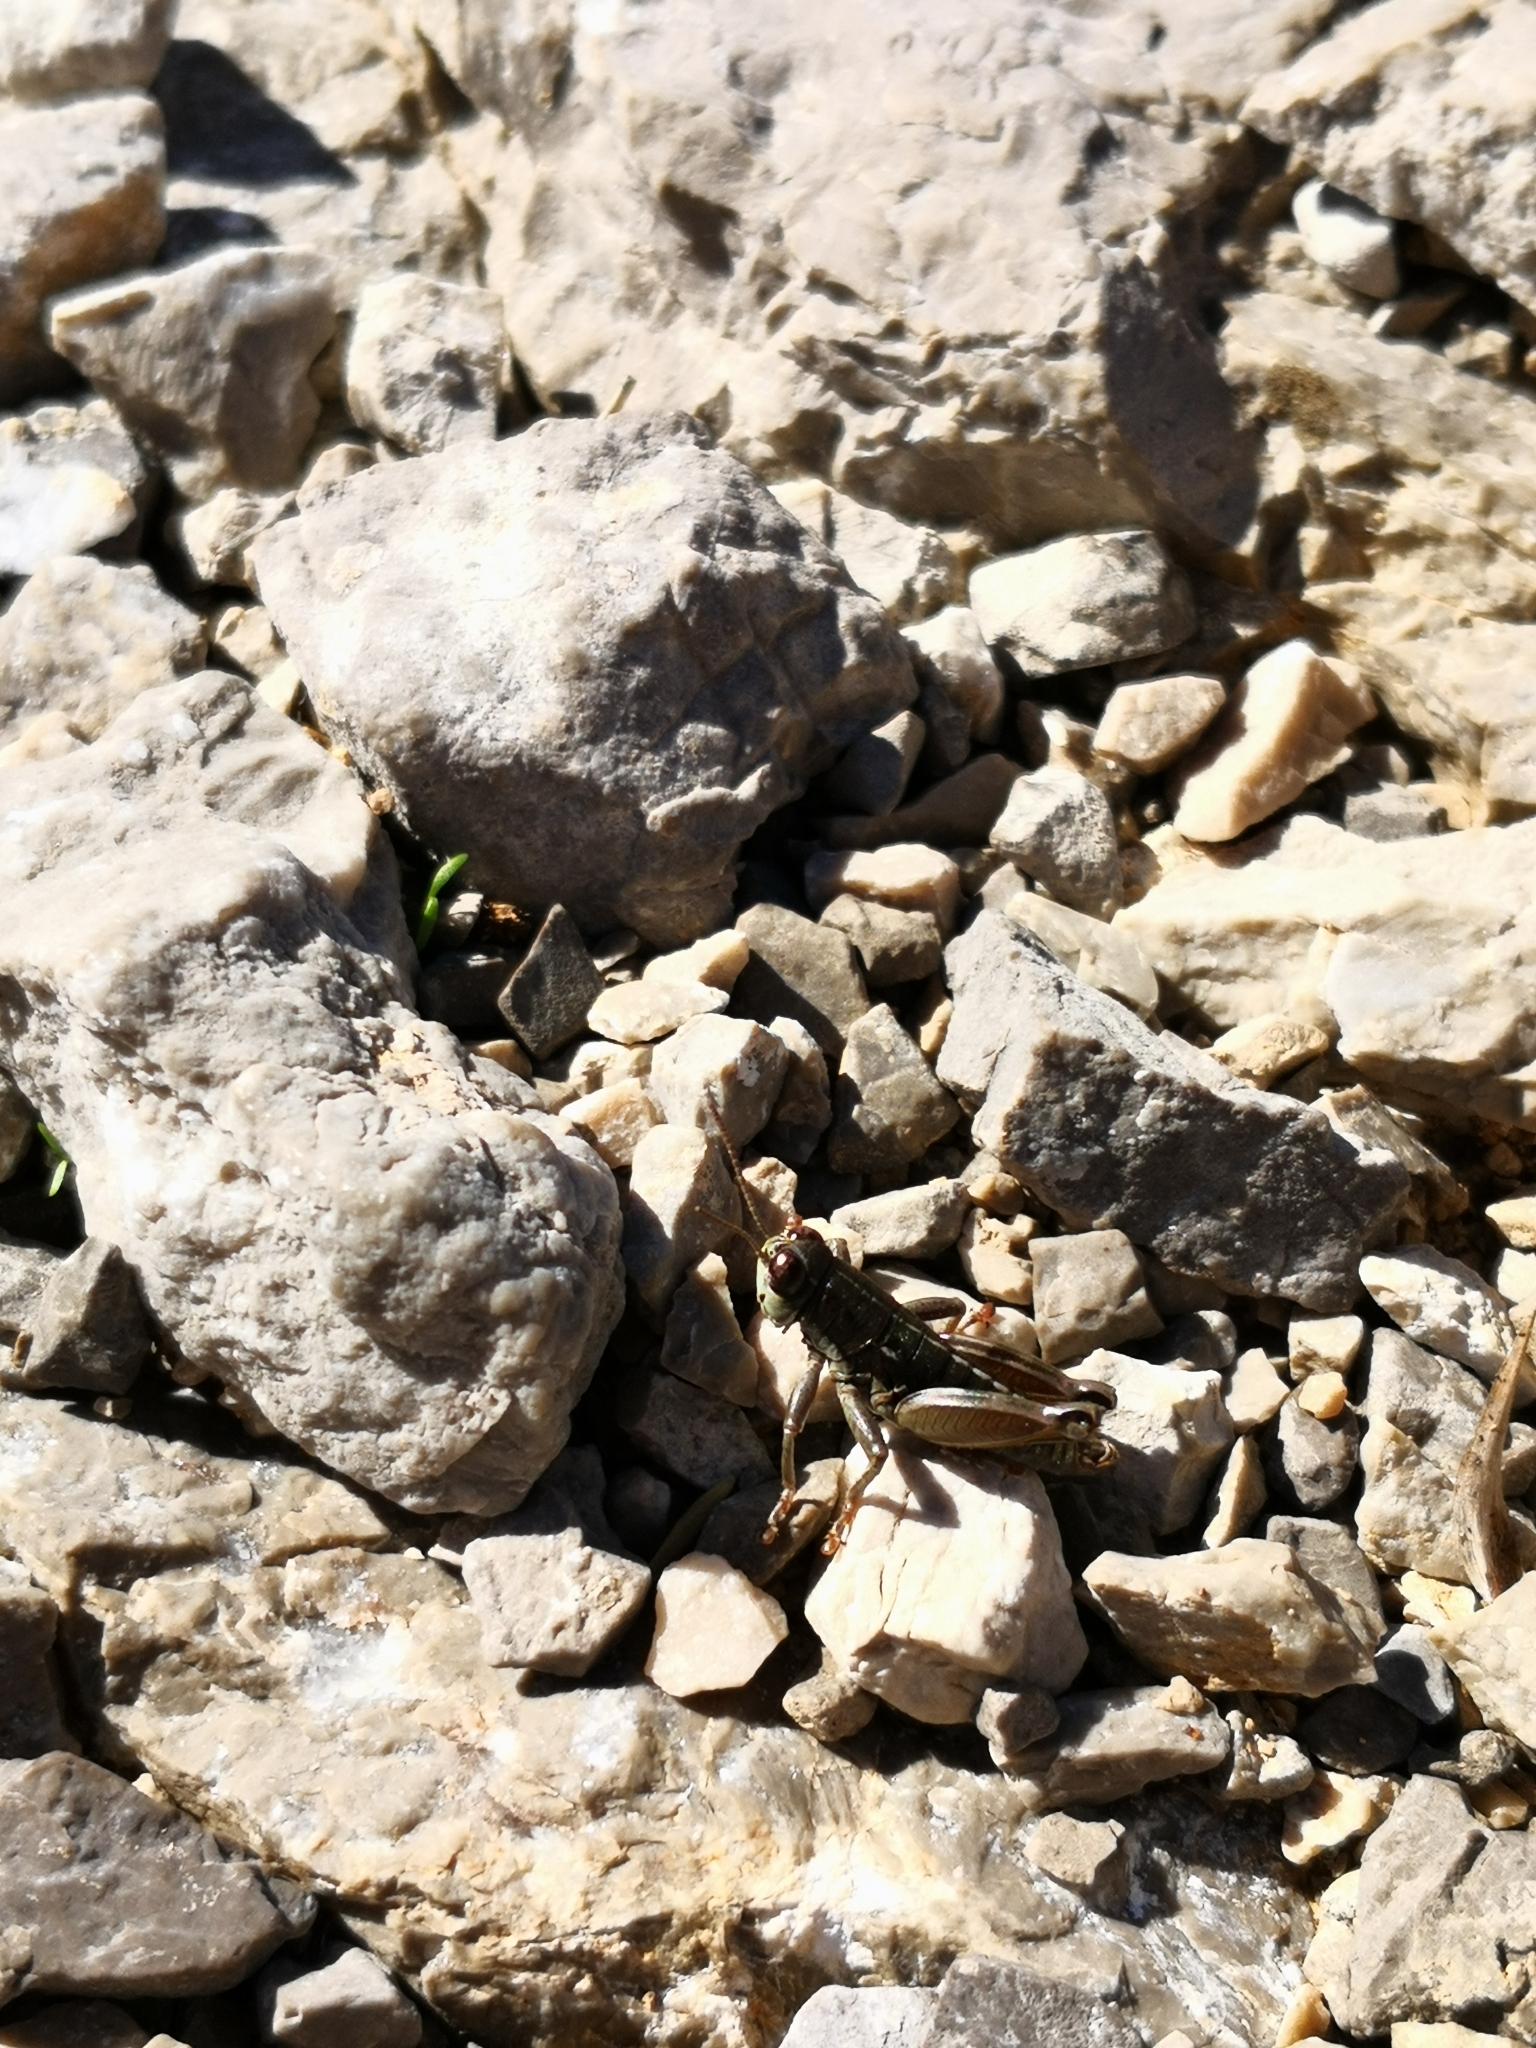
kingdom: Animalia
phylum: Arthropoda
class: Insecta
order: Orthoptera
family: Acrididae
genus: Oropodisma
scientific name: Oropodisma parnassica
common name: Parnassos mountain grasshopper
